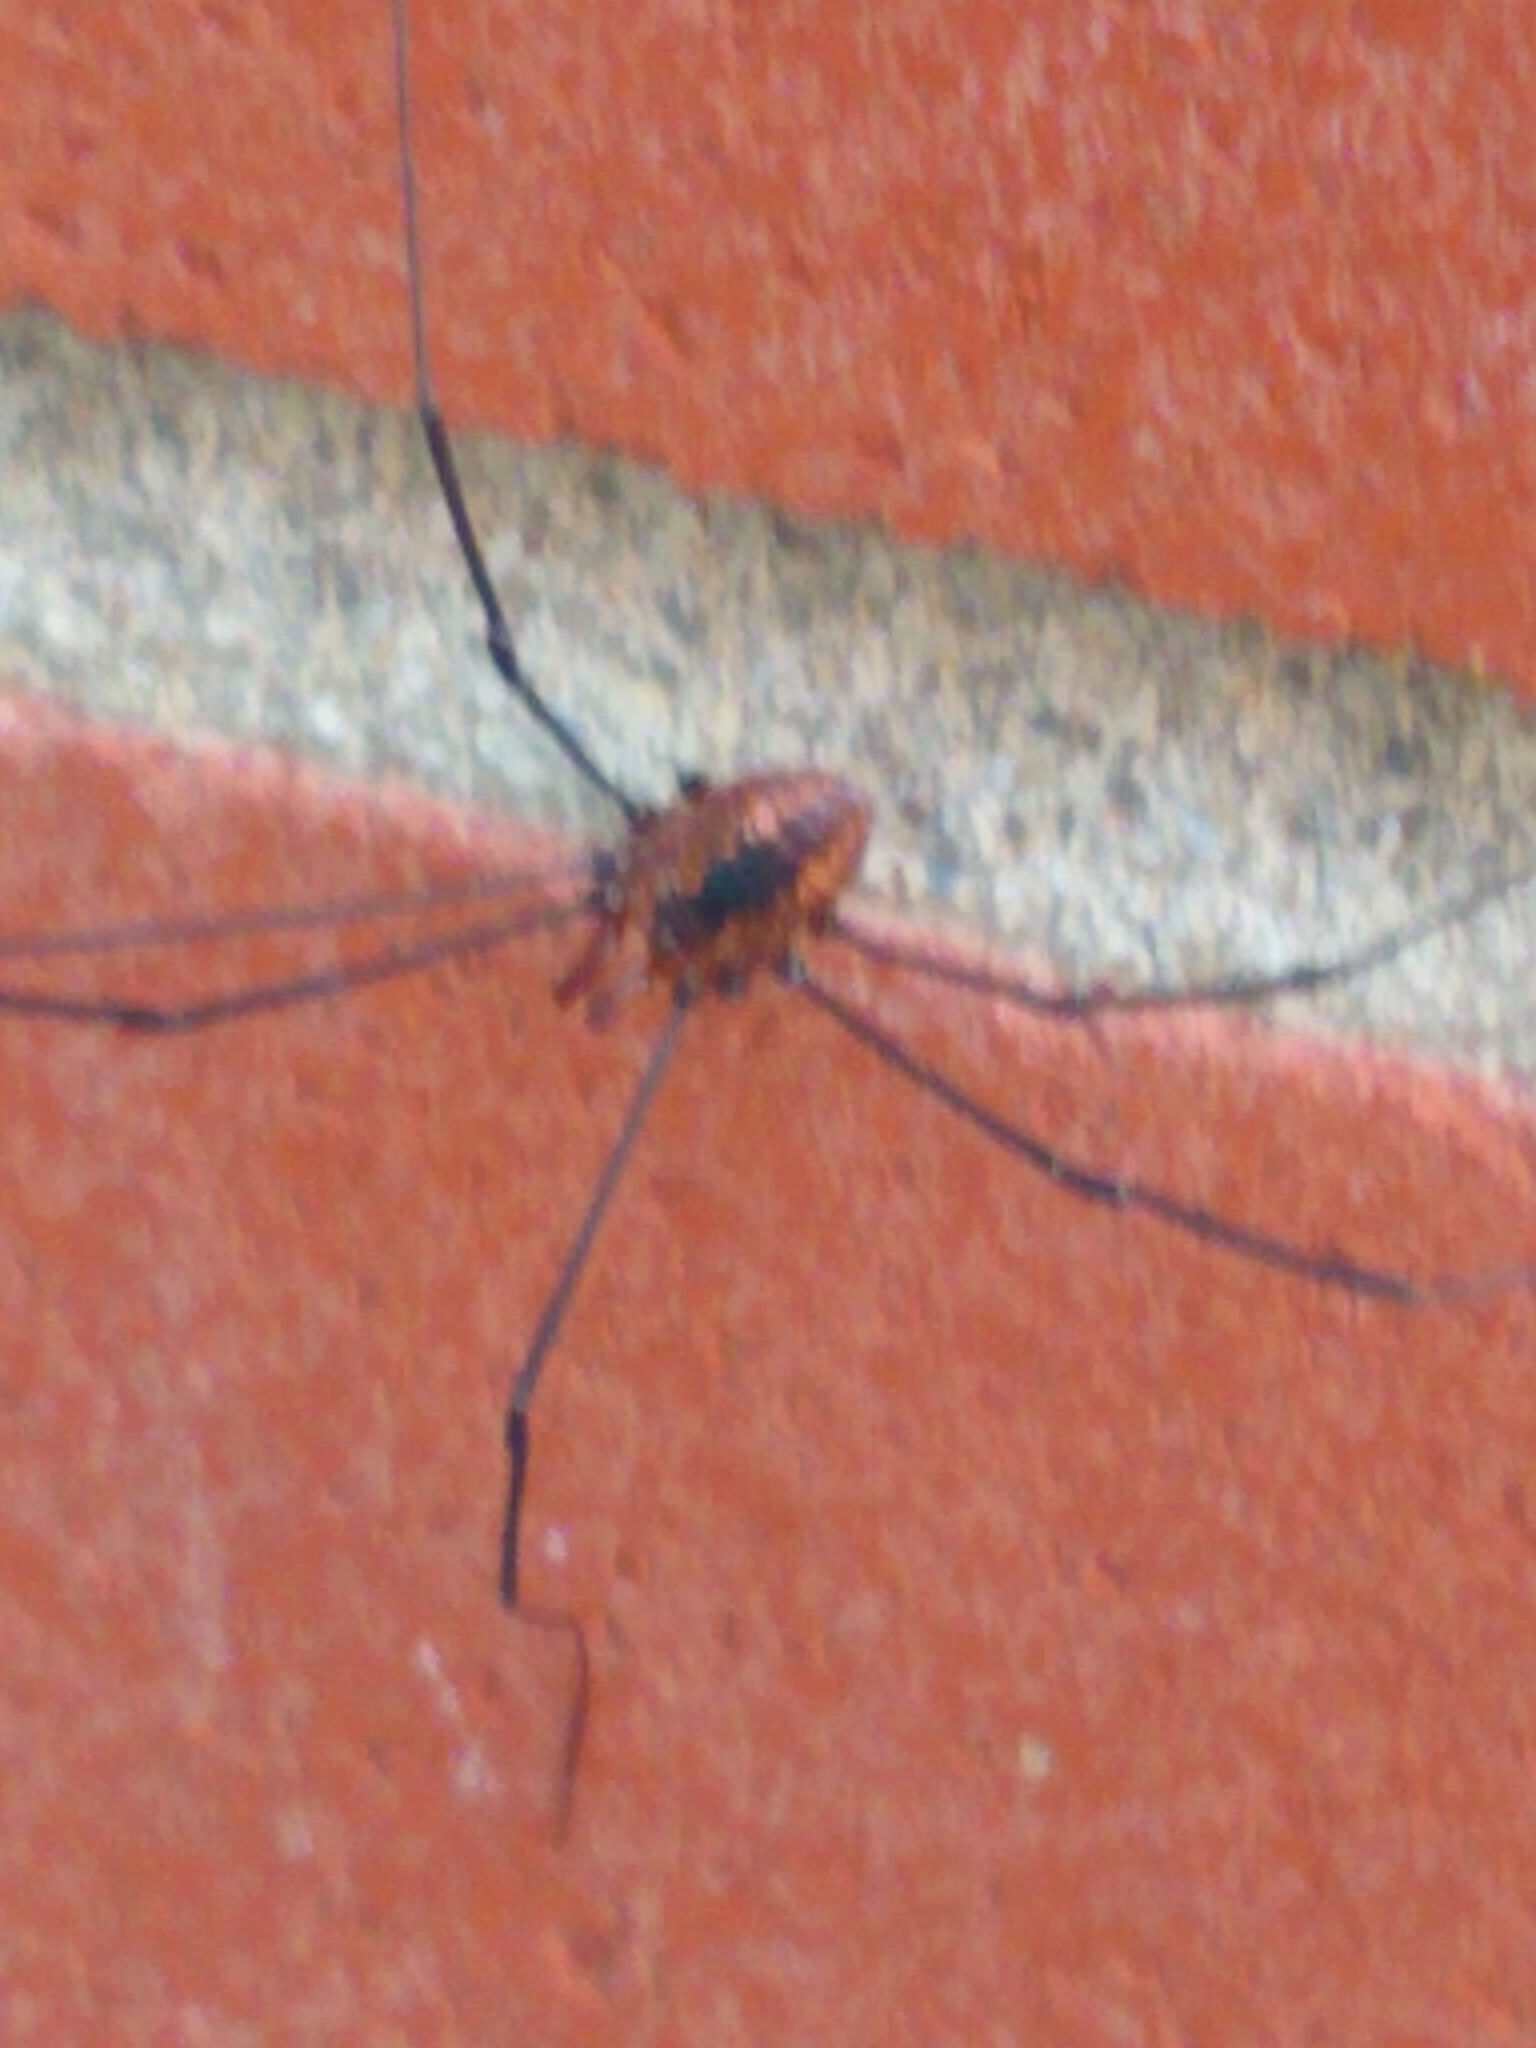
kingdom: Animalia
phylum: Arthropoda
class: Arachnida
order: Opiliones
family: Sclerosomatidae
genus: Leiobunum
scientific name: Leiobunum vittatum
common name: Eastern harvestman
